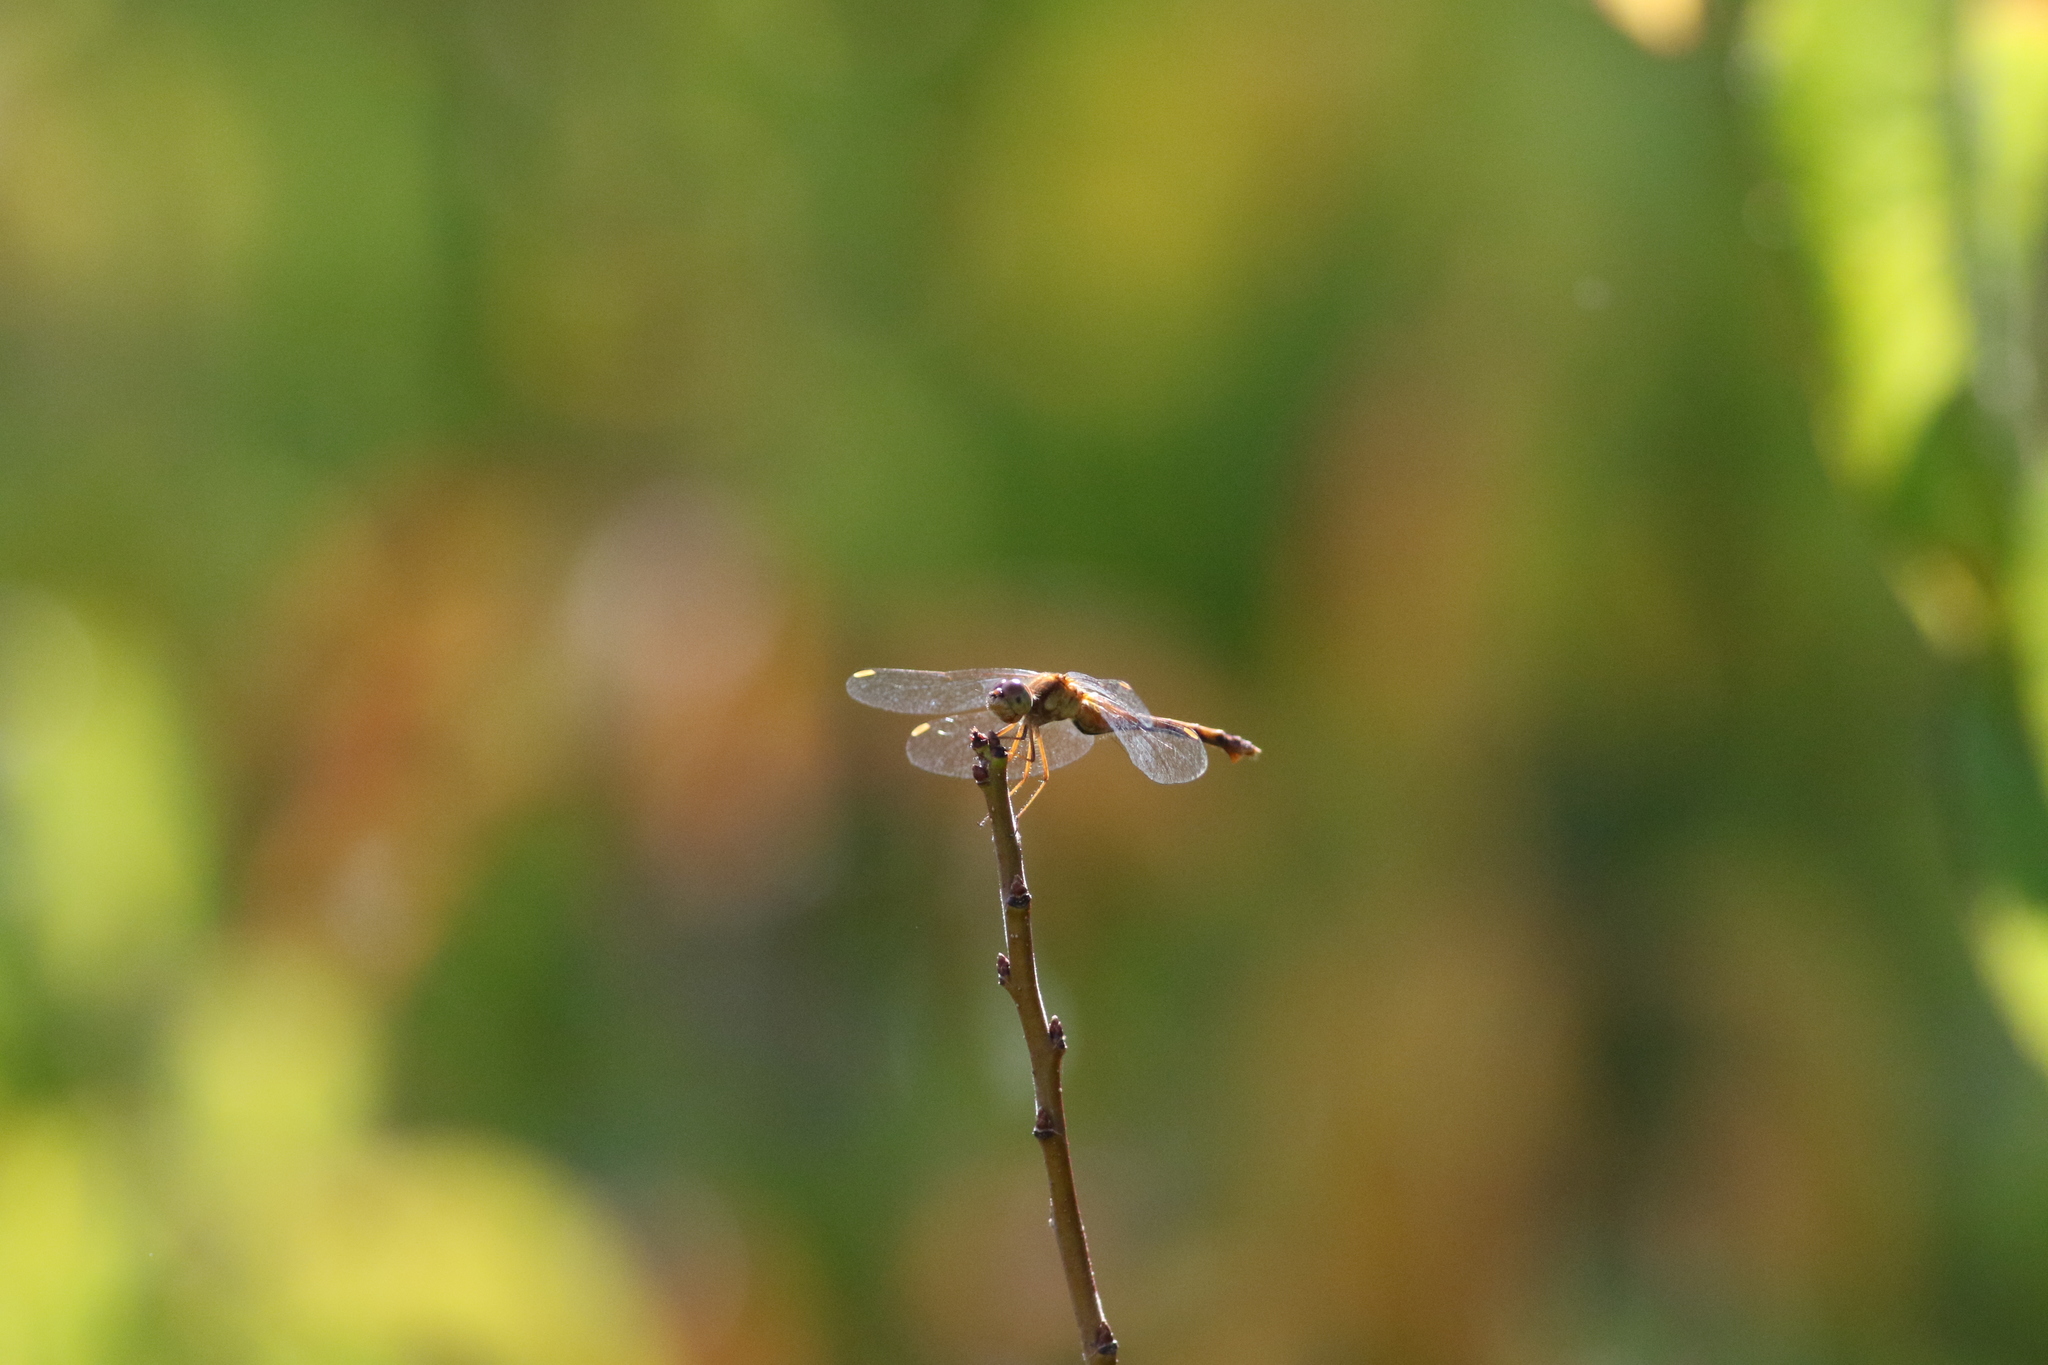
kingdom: Animalia
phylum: Arthropoda
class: Insecta
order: Odonata
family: Libellulidae
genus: Sympetrum
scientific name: Sympetrum vicinum
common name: Autumn meadowhawk
